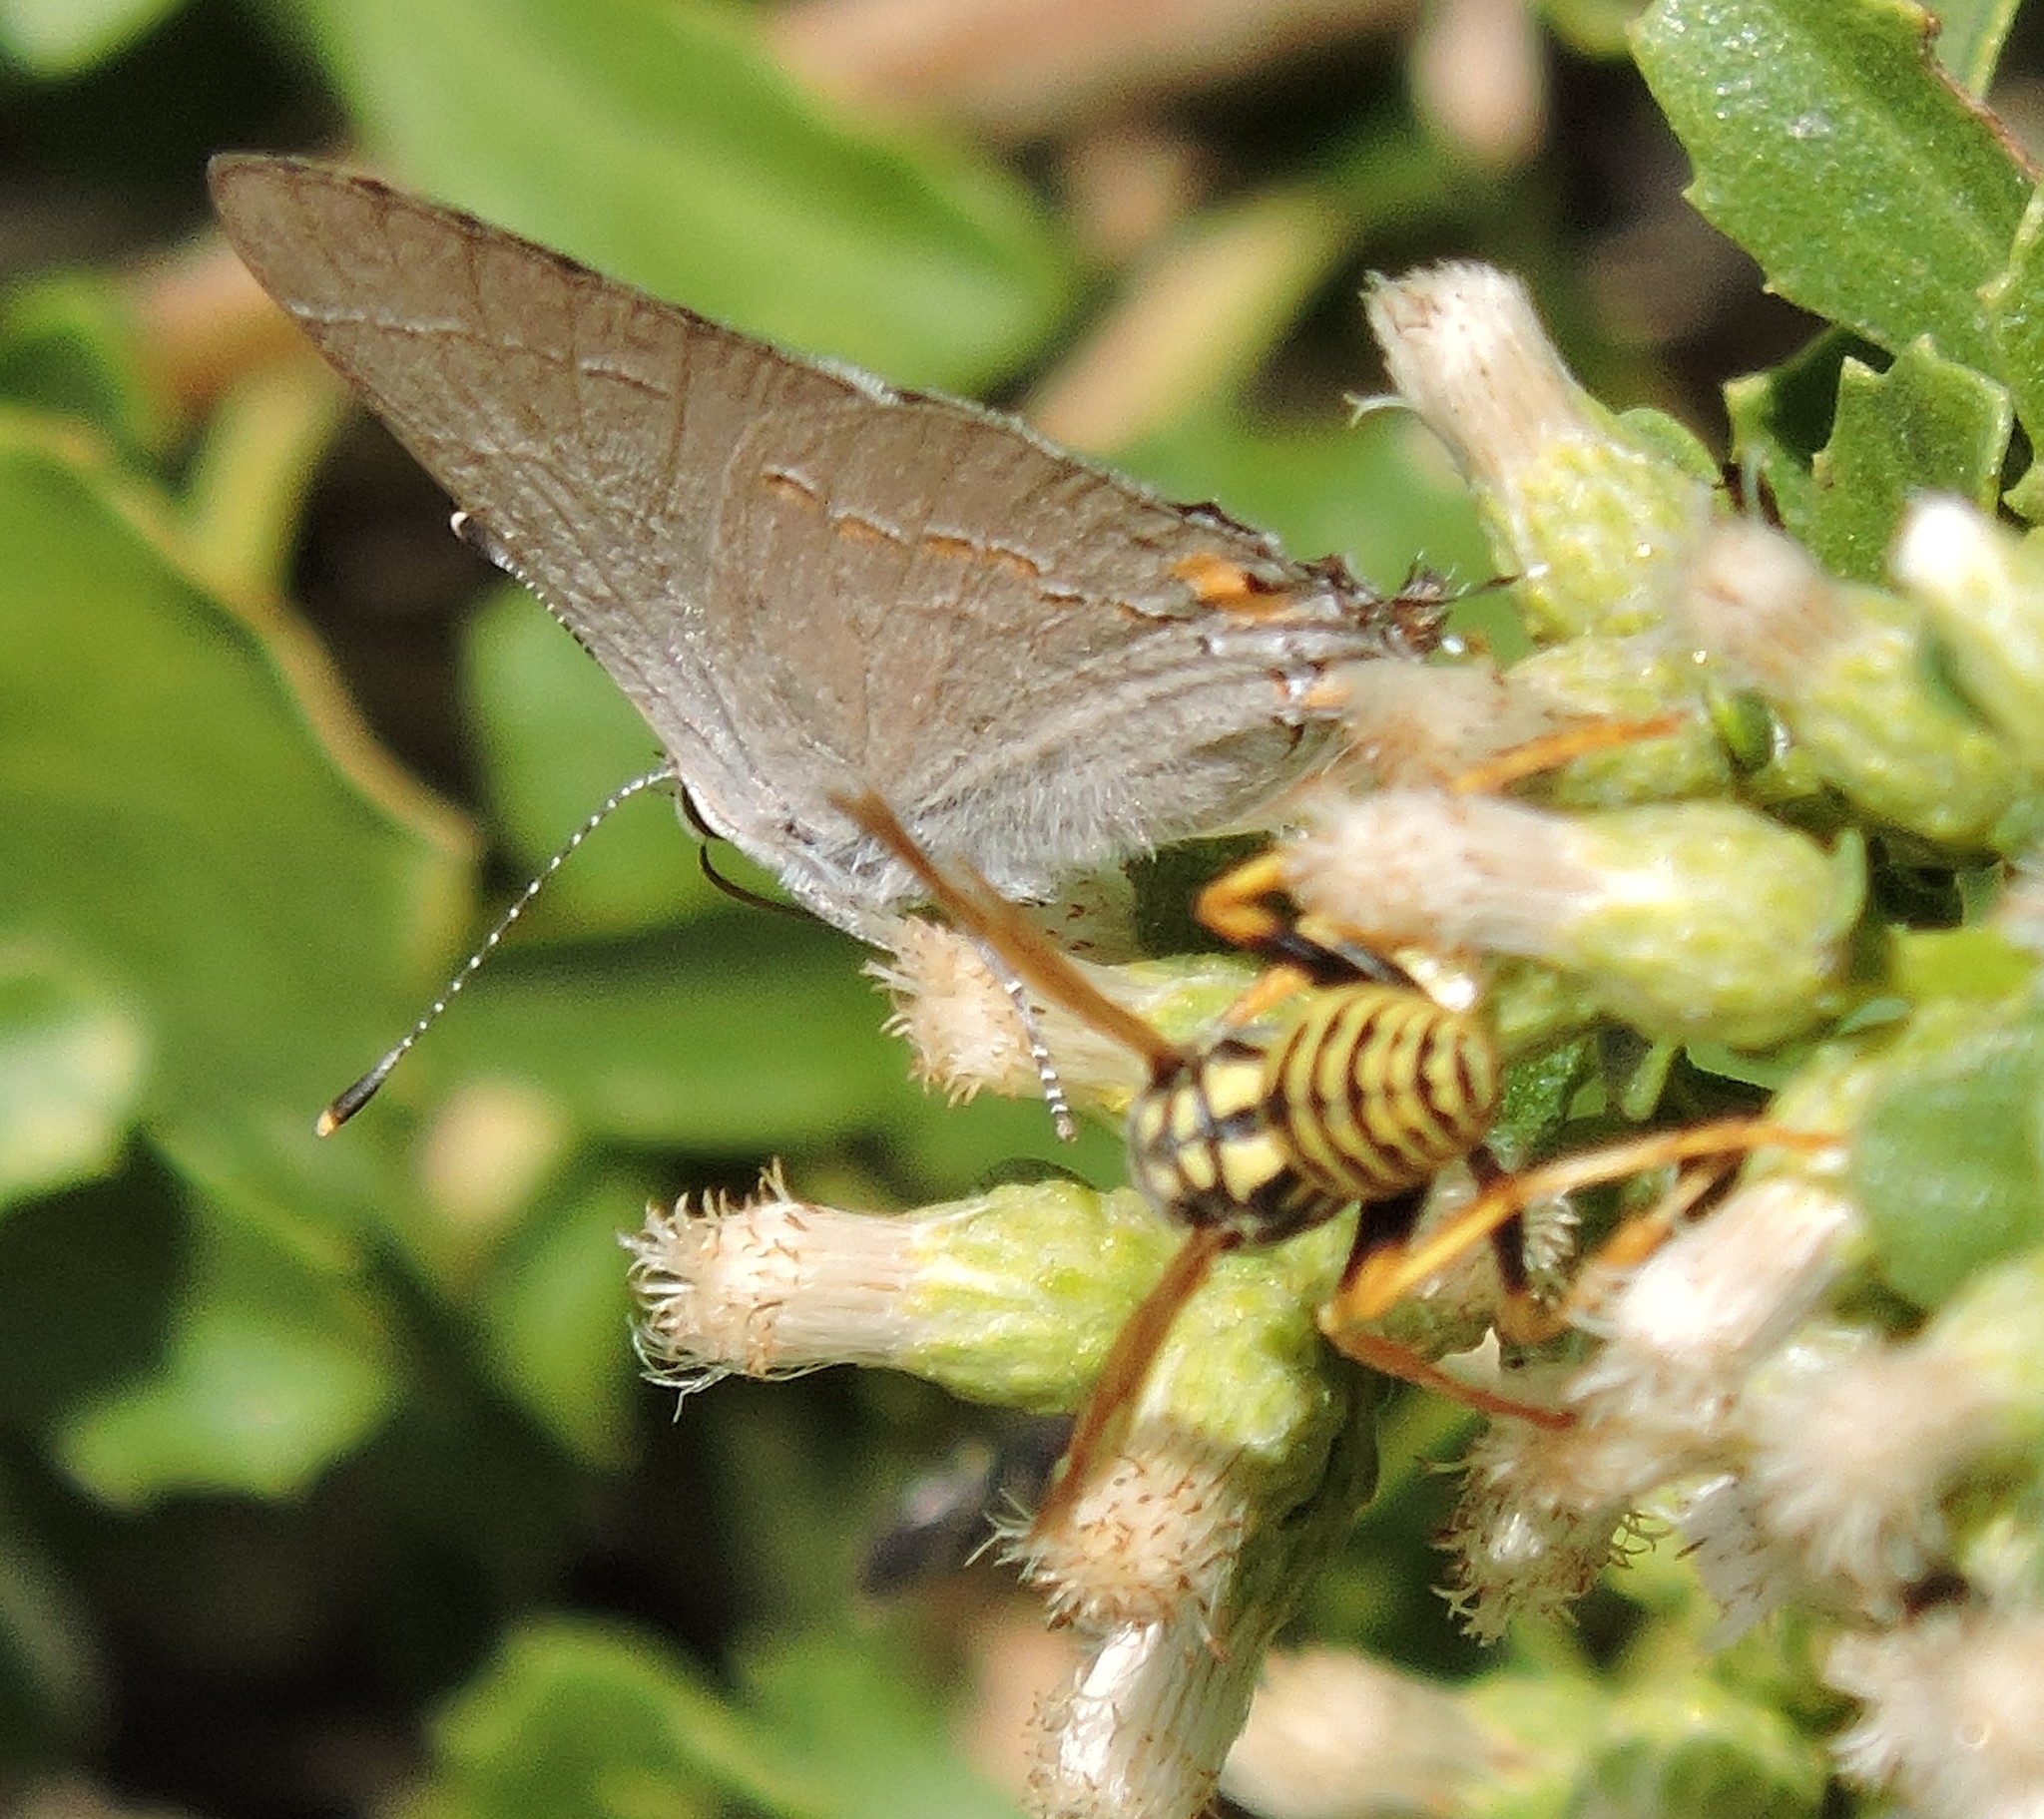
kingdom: Animalia
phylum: Arthropoda
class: Insecta
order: Hymenoptera
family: Eumenidae
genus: Polistes
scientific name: Polistes dominula
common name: Paper wasp
